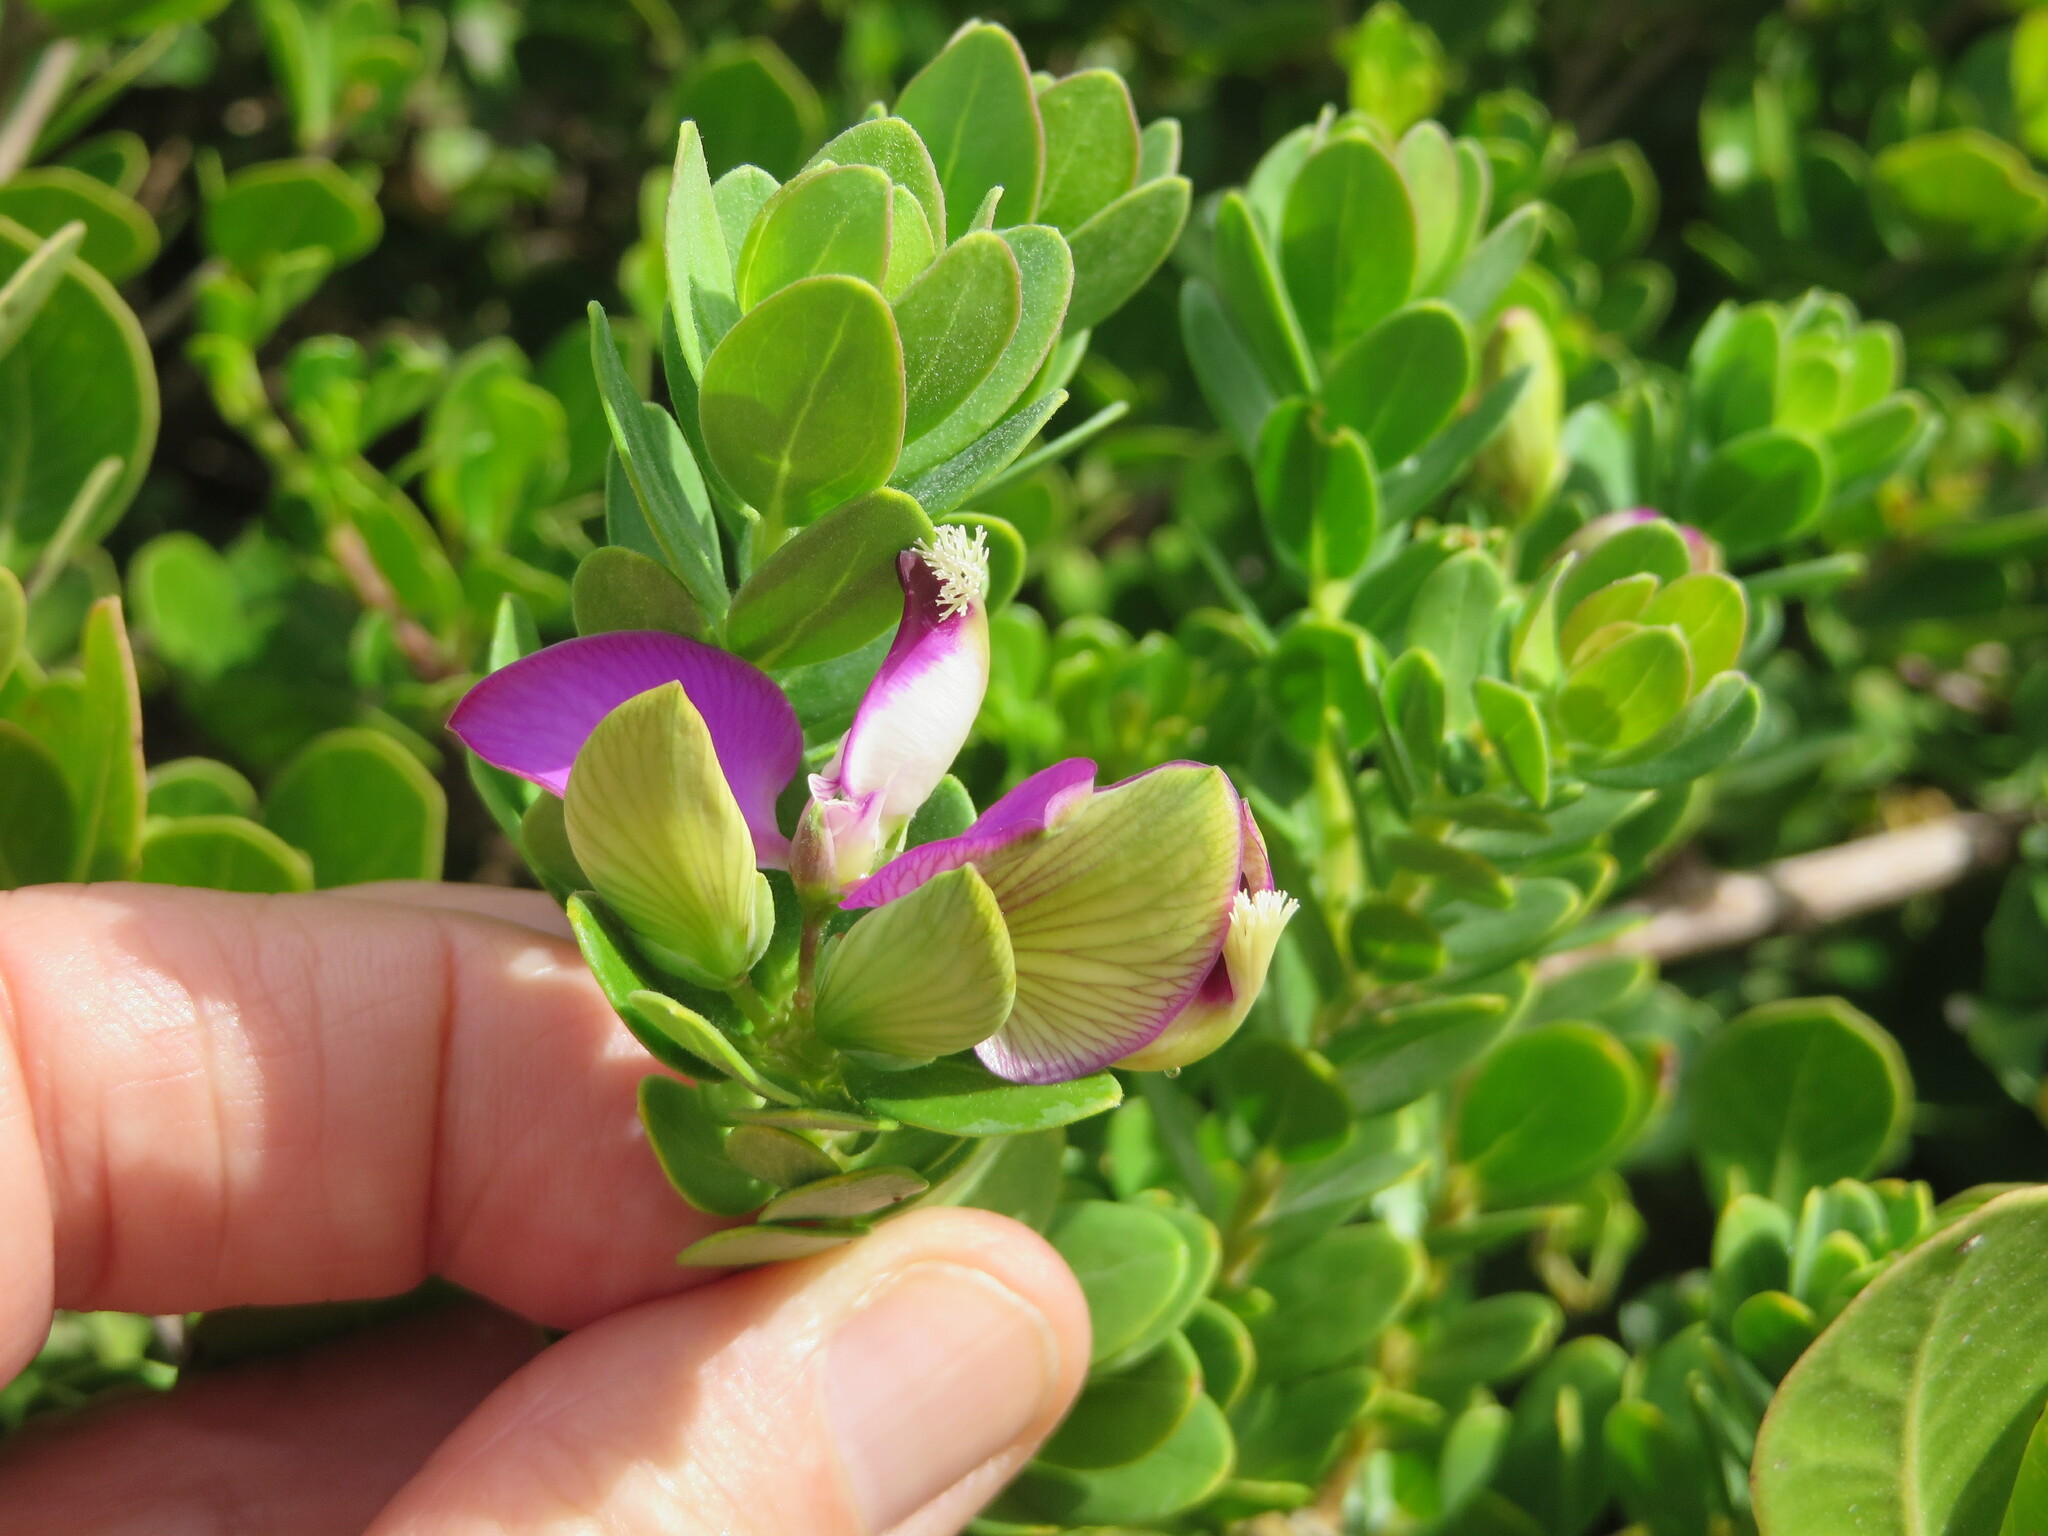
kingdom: Plantae
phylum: Tracheophyta
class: Magnoliopsida
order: Fabales
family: Polygalaceae
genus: Polygala
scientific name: Polygala myrtifolia
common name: Myrtle-leaf milkwort
